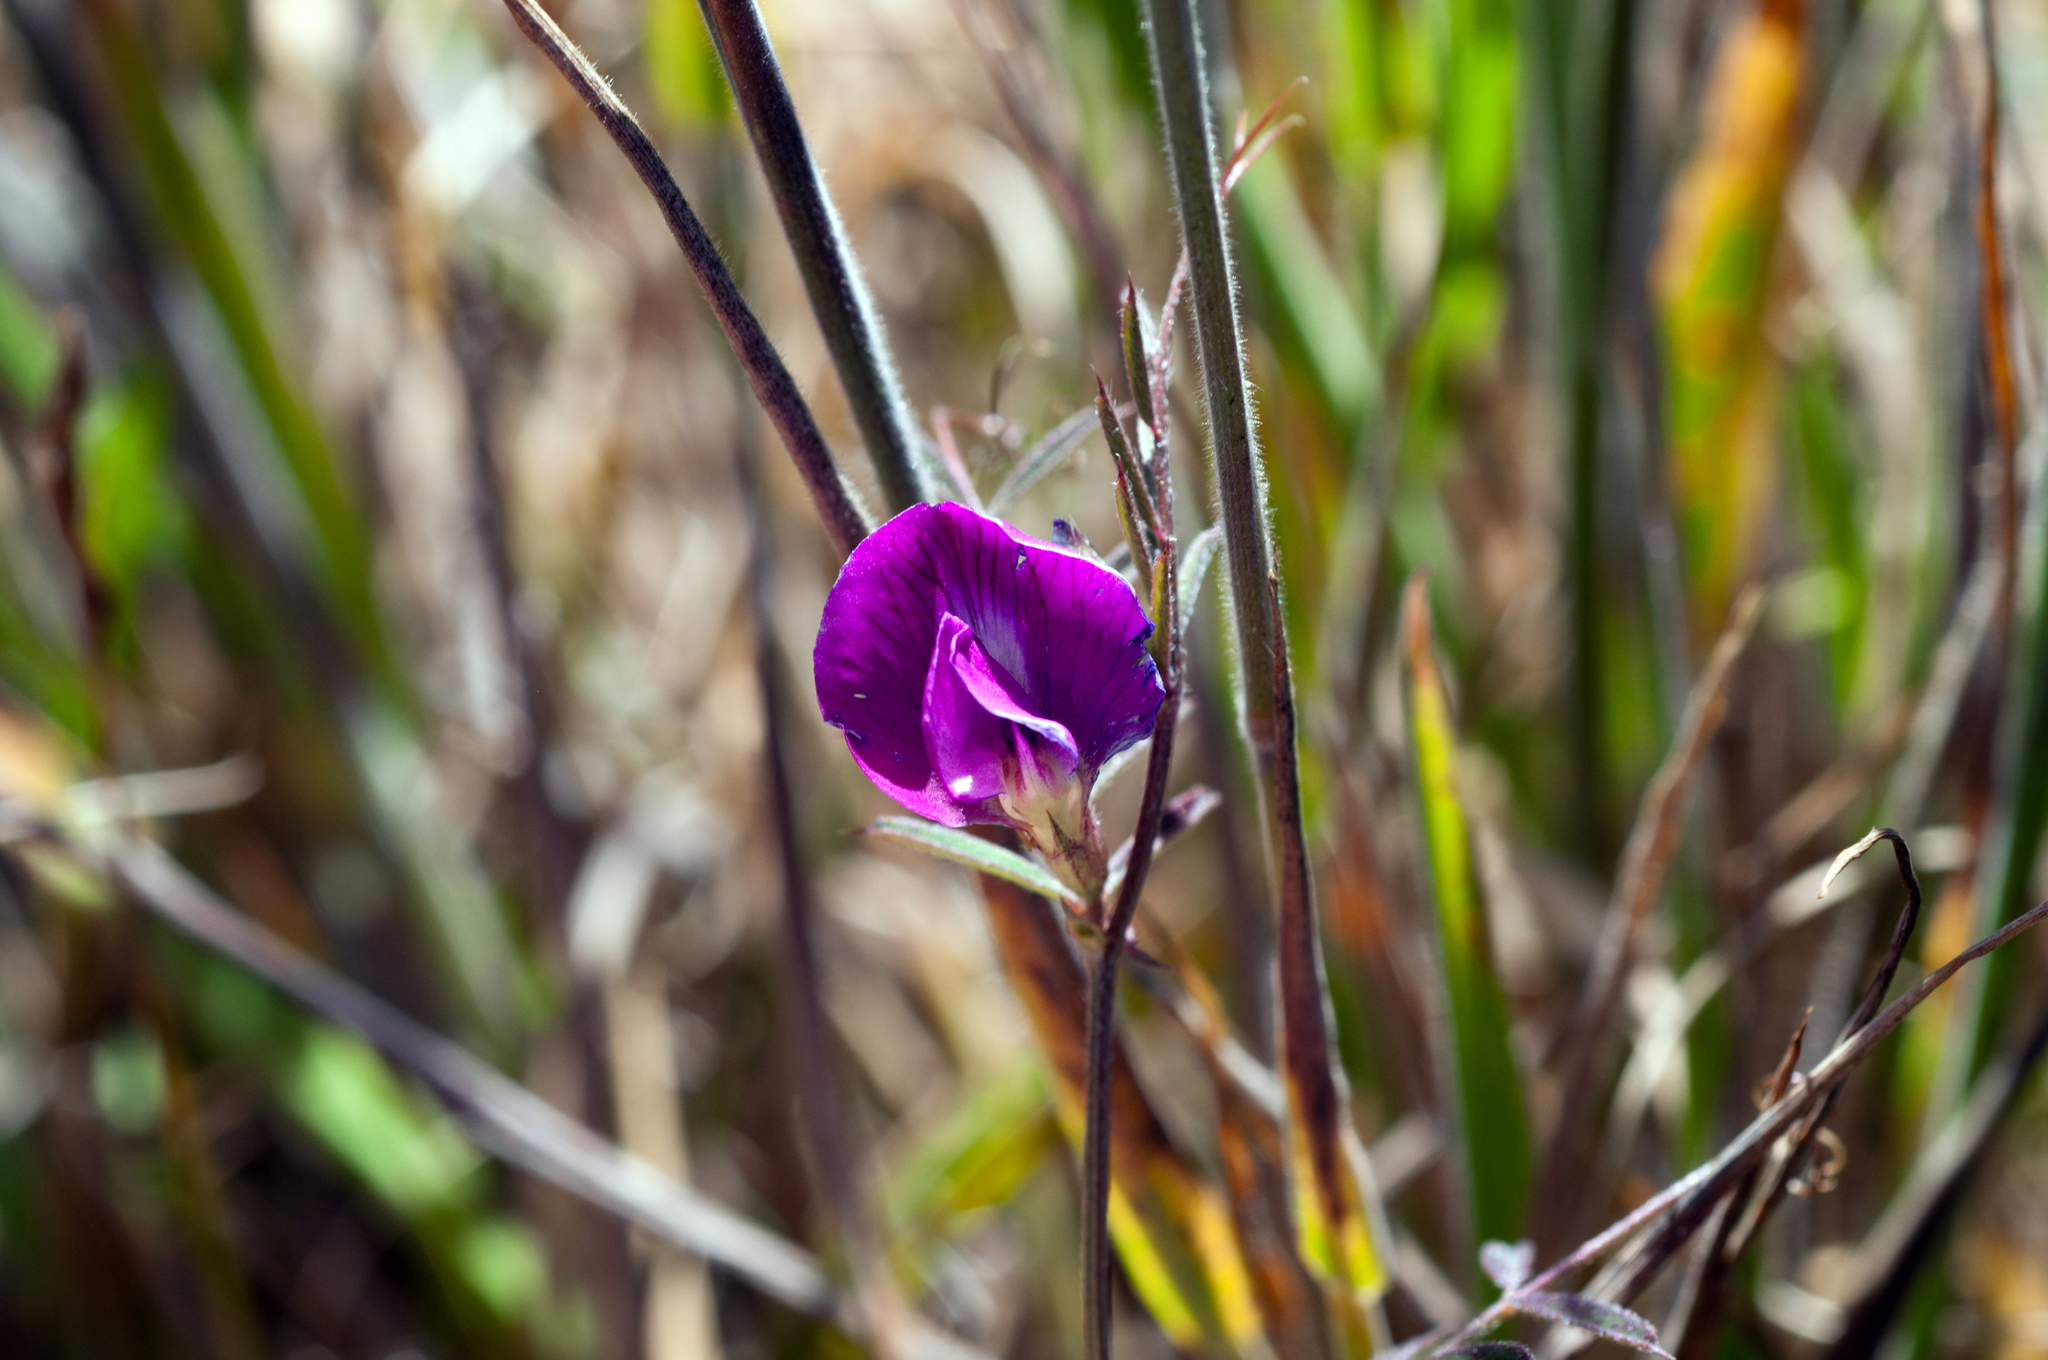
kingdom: Plantae
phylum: Tracheophyta
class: Magnoliopsida
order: Fabales
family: Fabaceae
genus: Vicia
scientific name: Vicia sativa
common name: Garden vetch
